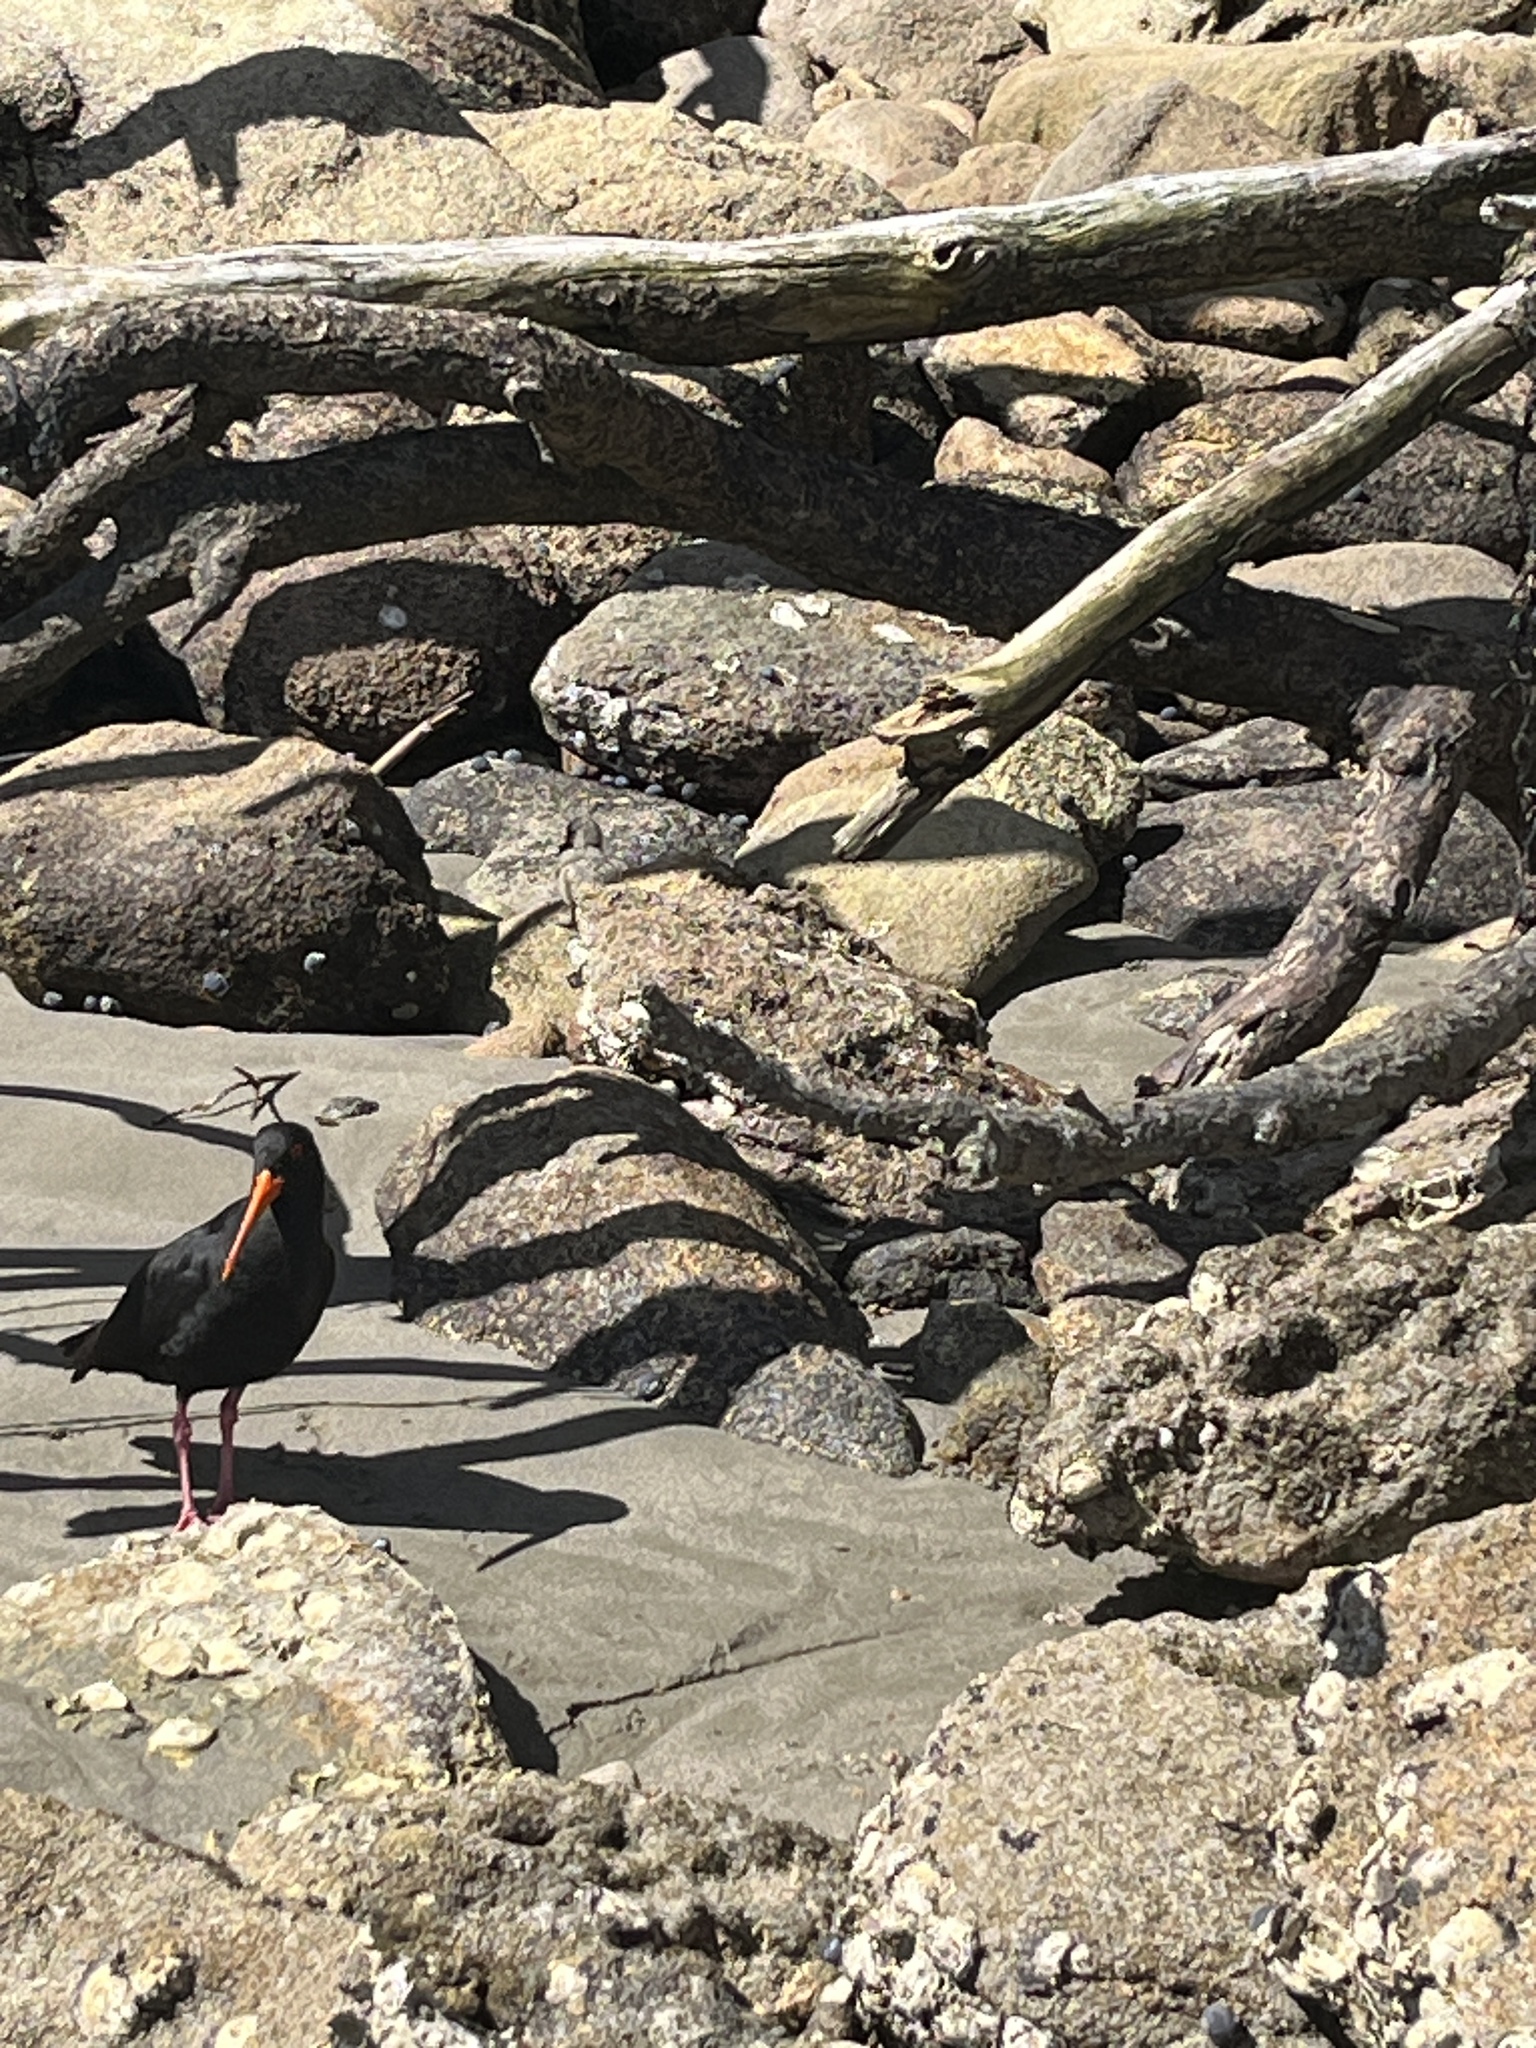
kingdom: Animalia
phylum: Chordata
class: Aves
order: Charadriiformes
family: Haematopodidae
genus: Haematopus
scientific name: Haematopus unicolor
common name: Variable oystercatcher
